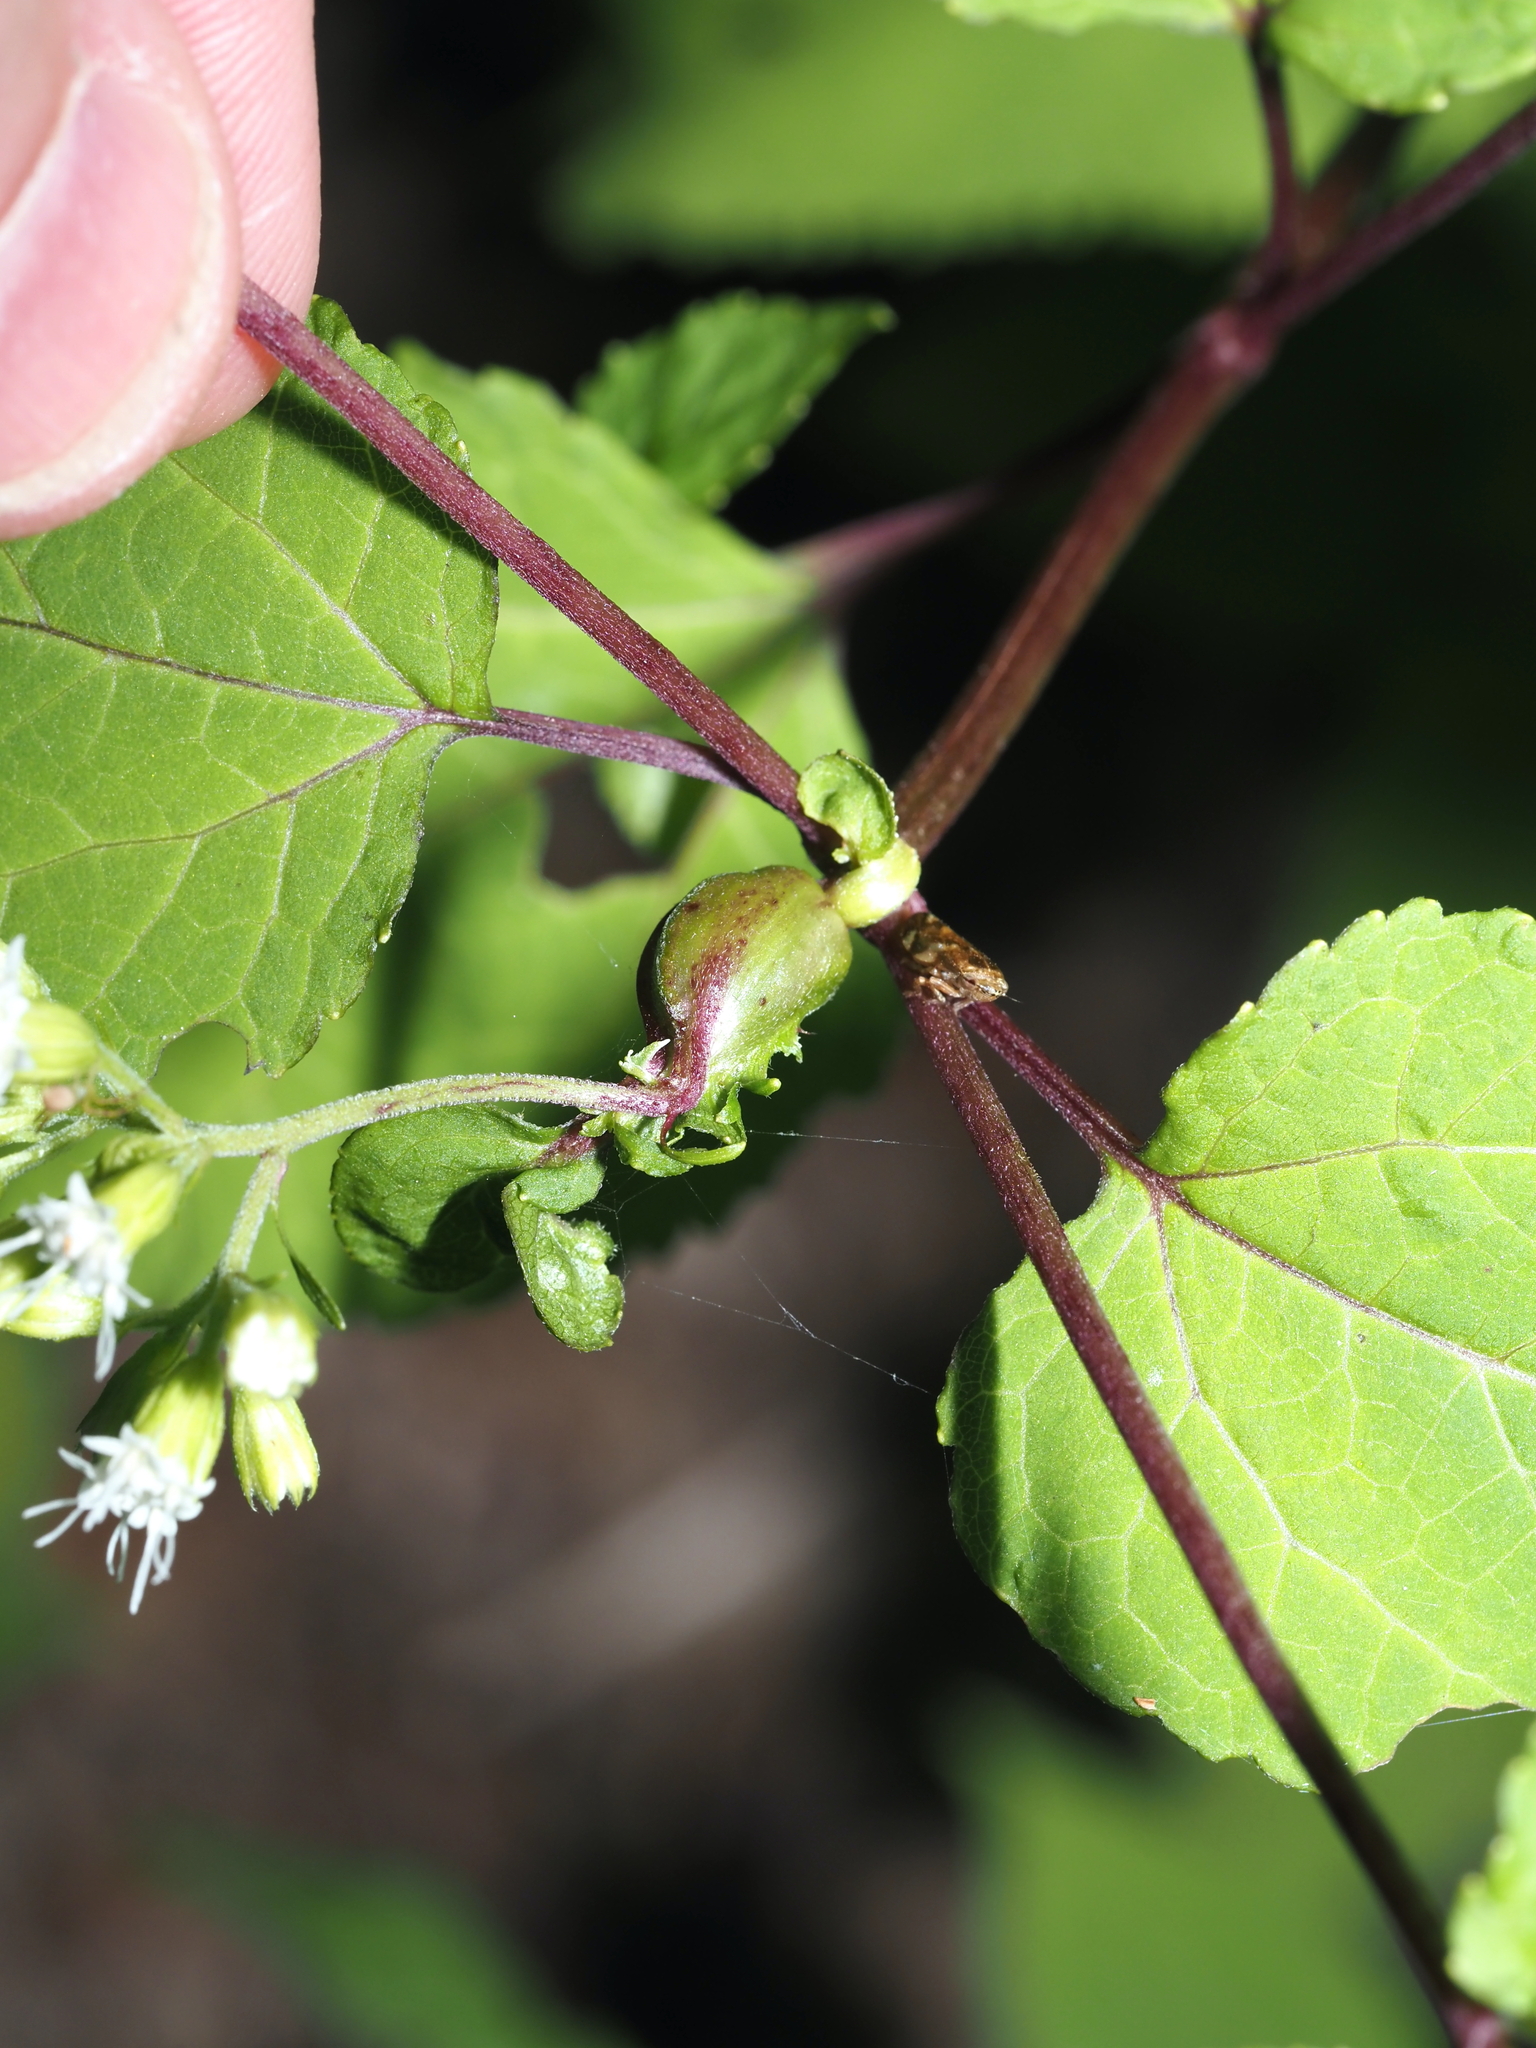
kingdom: Animalia
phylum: Arthropoda
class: Insecta
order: Diptera
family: Cecidomyiidae
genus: Asphondylia
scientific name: Asphondylia eupatorii
